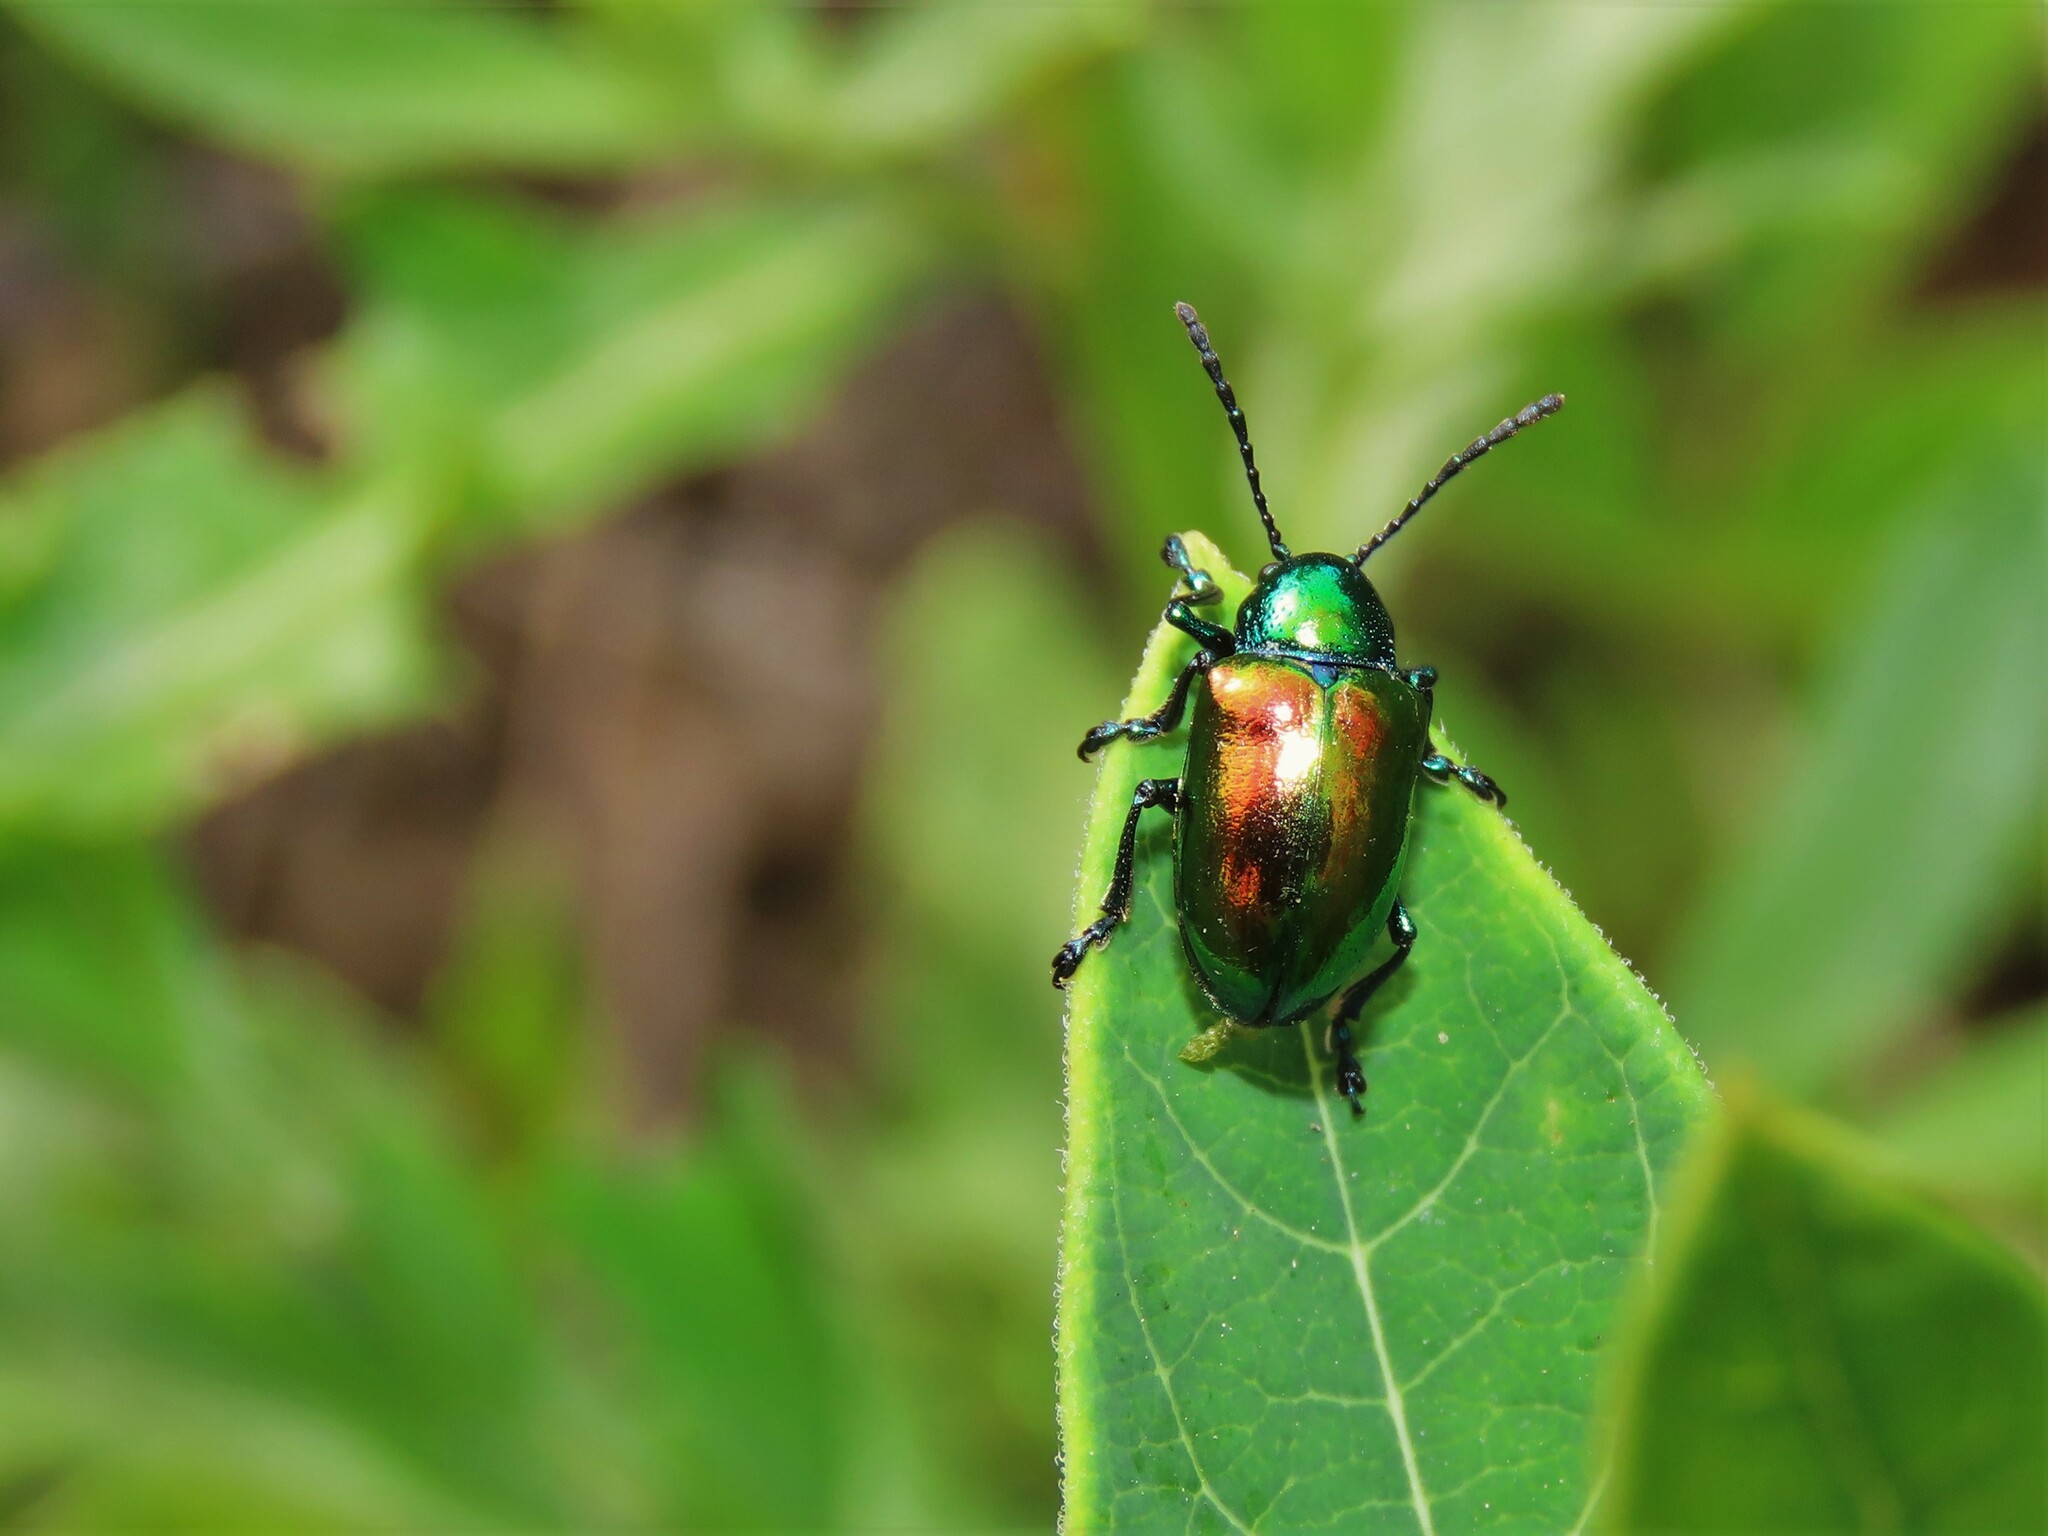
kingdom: Animalia
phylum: Arthropoda
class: Insecta
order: Coleoptera
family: Chrysomelidae
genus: Chrysochus
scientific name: Chrysochus auratus
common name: Dogbane leaf beetle
